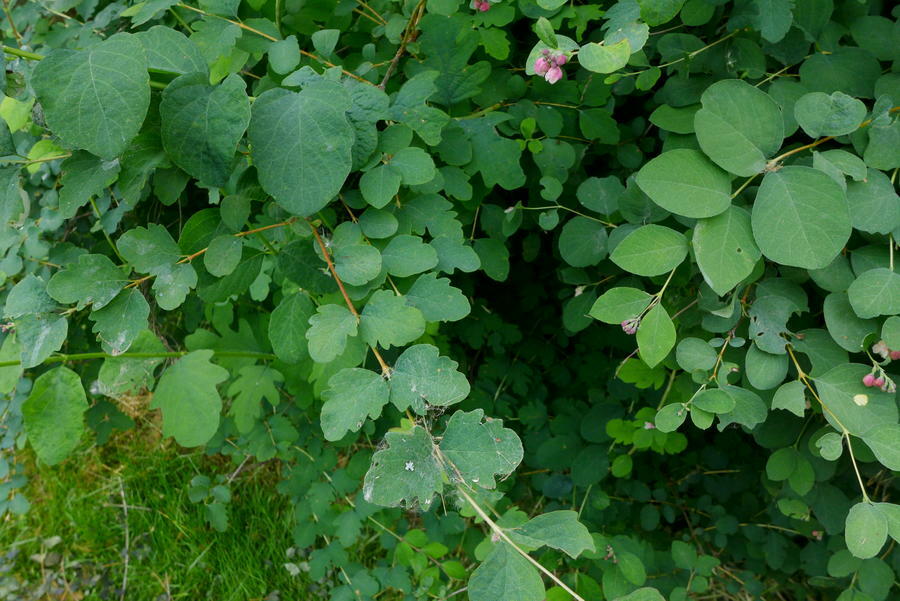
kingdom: Plantae
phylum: Tracheophyta
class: Magnoliopsida
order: Dipsacales
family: Caprifoliaceae
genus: Symphoricarpos
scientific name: Symphoricarpos albus
